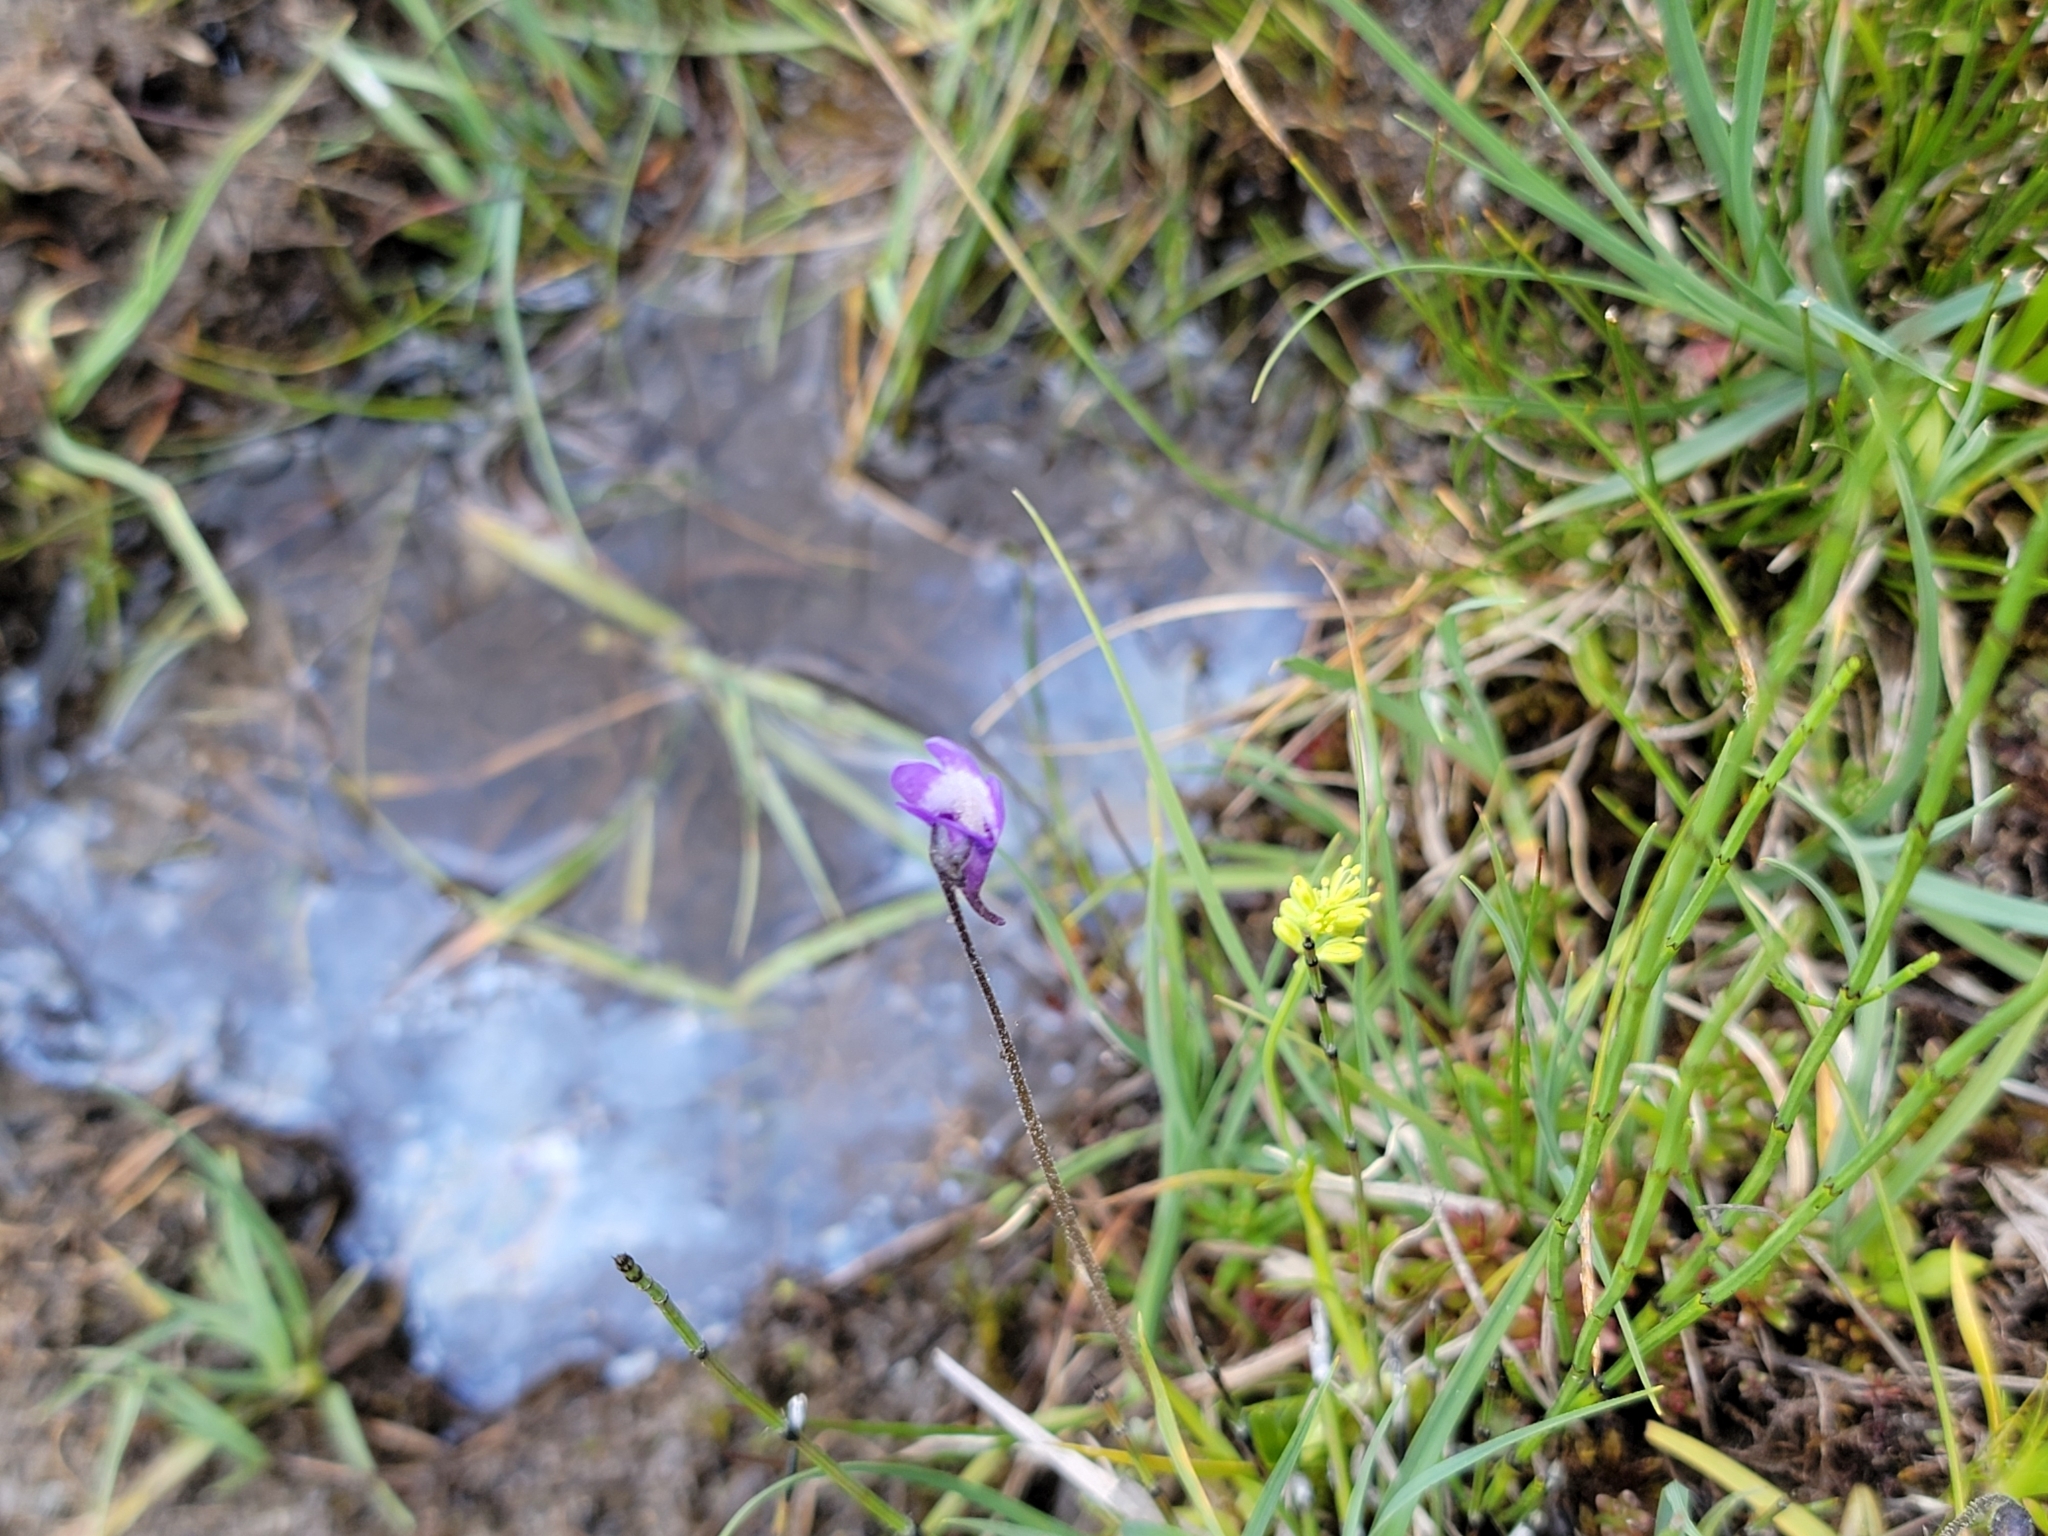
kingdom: Plantae
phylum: Tracheophyta
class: Magnoliopsida
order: Lamiales
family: Lentibulariaceae
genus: Pinguicula
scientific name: Pinguicula vulgaris
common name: Common butterwort
